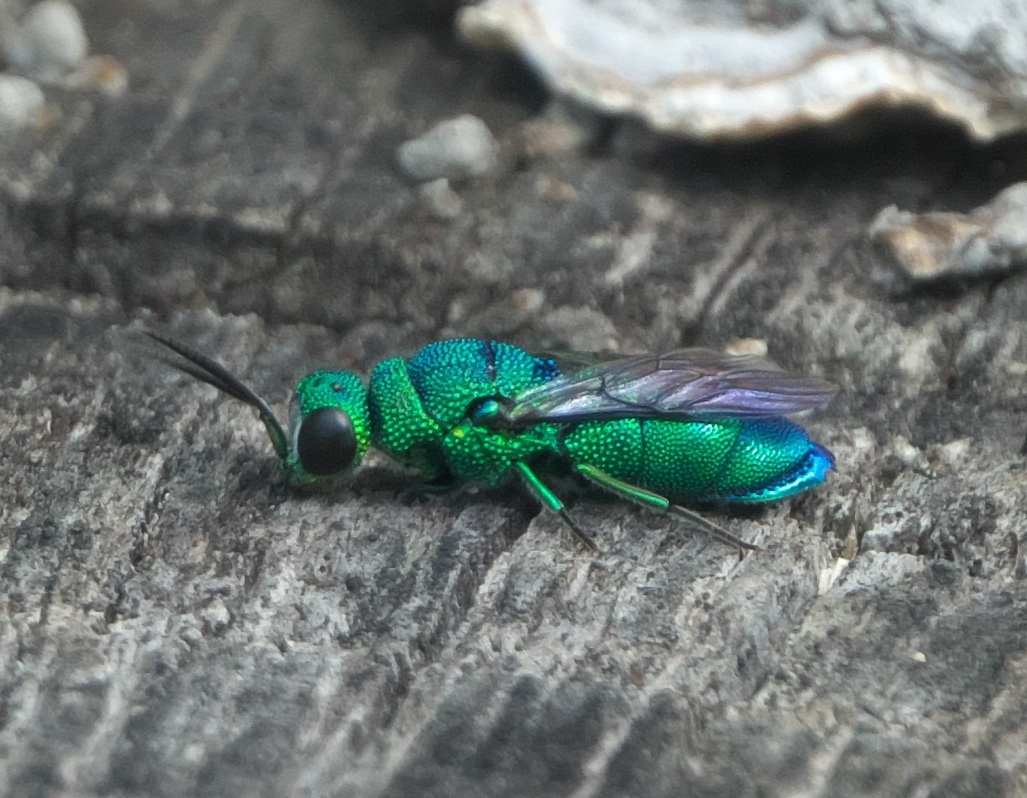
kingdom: Animalia
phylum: Arthropoda
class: Insecta
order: Hymenoptera
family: Chrysididae
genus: Chrysis
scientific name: Chrysis nisseri
